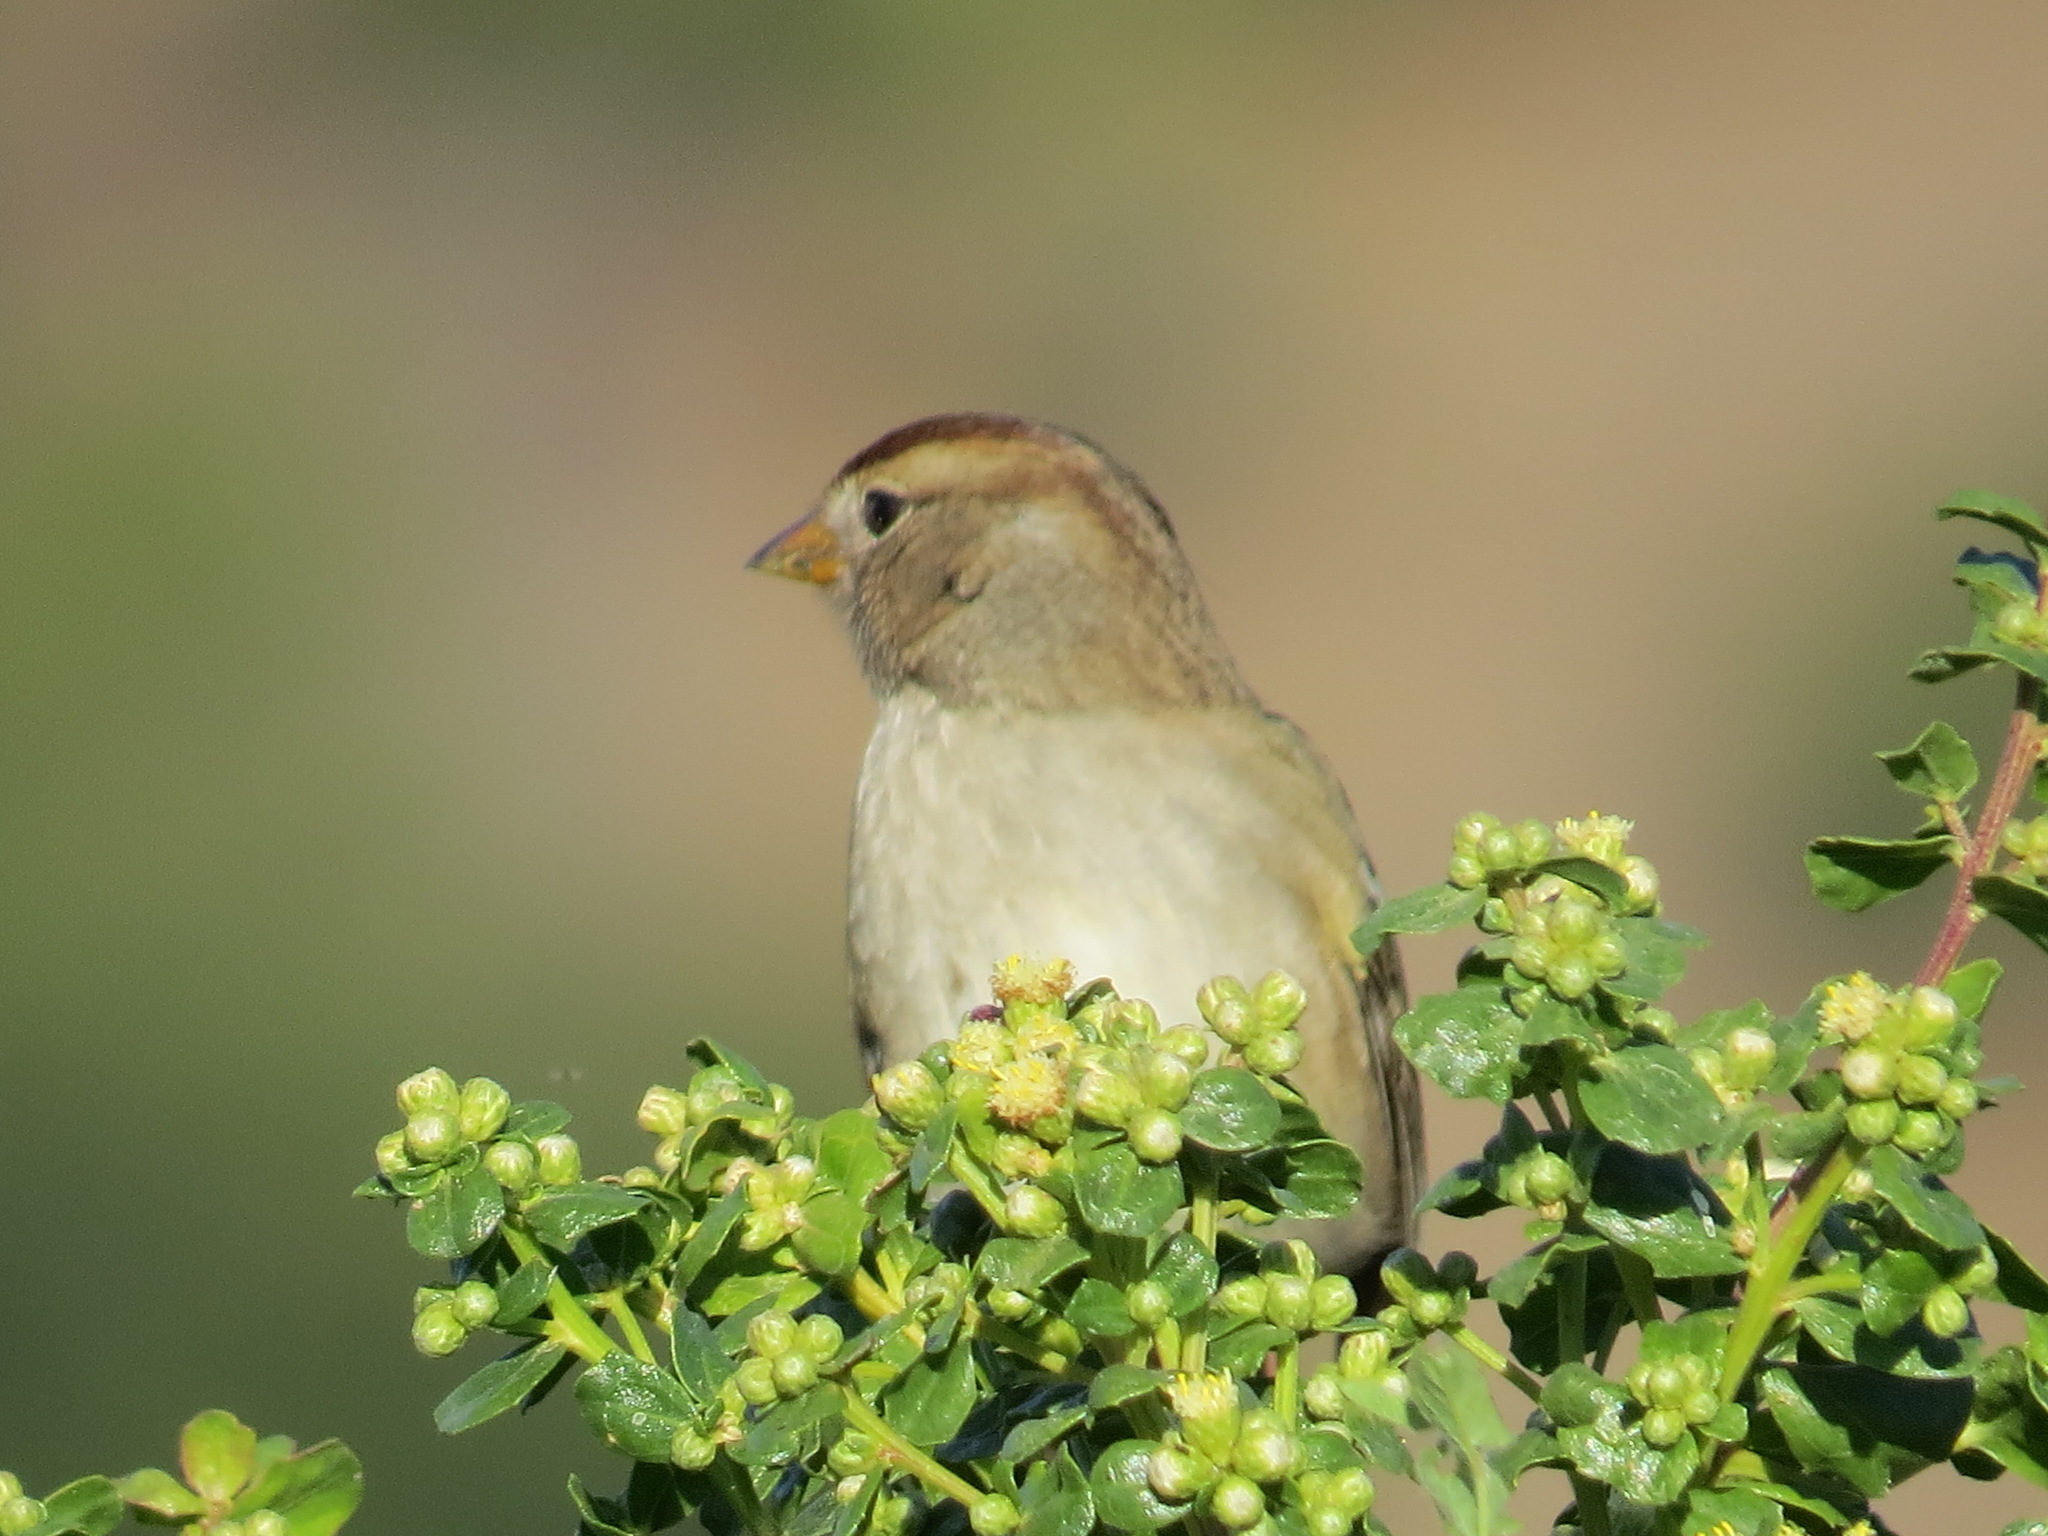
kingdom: Animalia
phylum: Chordata
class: Aves
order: Passeriformes
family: Passerellidae
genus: Zonotrichia
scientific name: Zonotrichia leucophrys
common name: White-crowned sparrow
